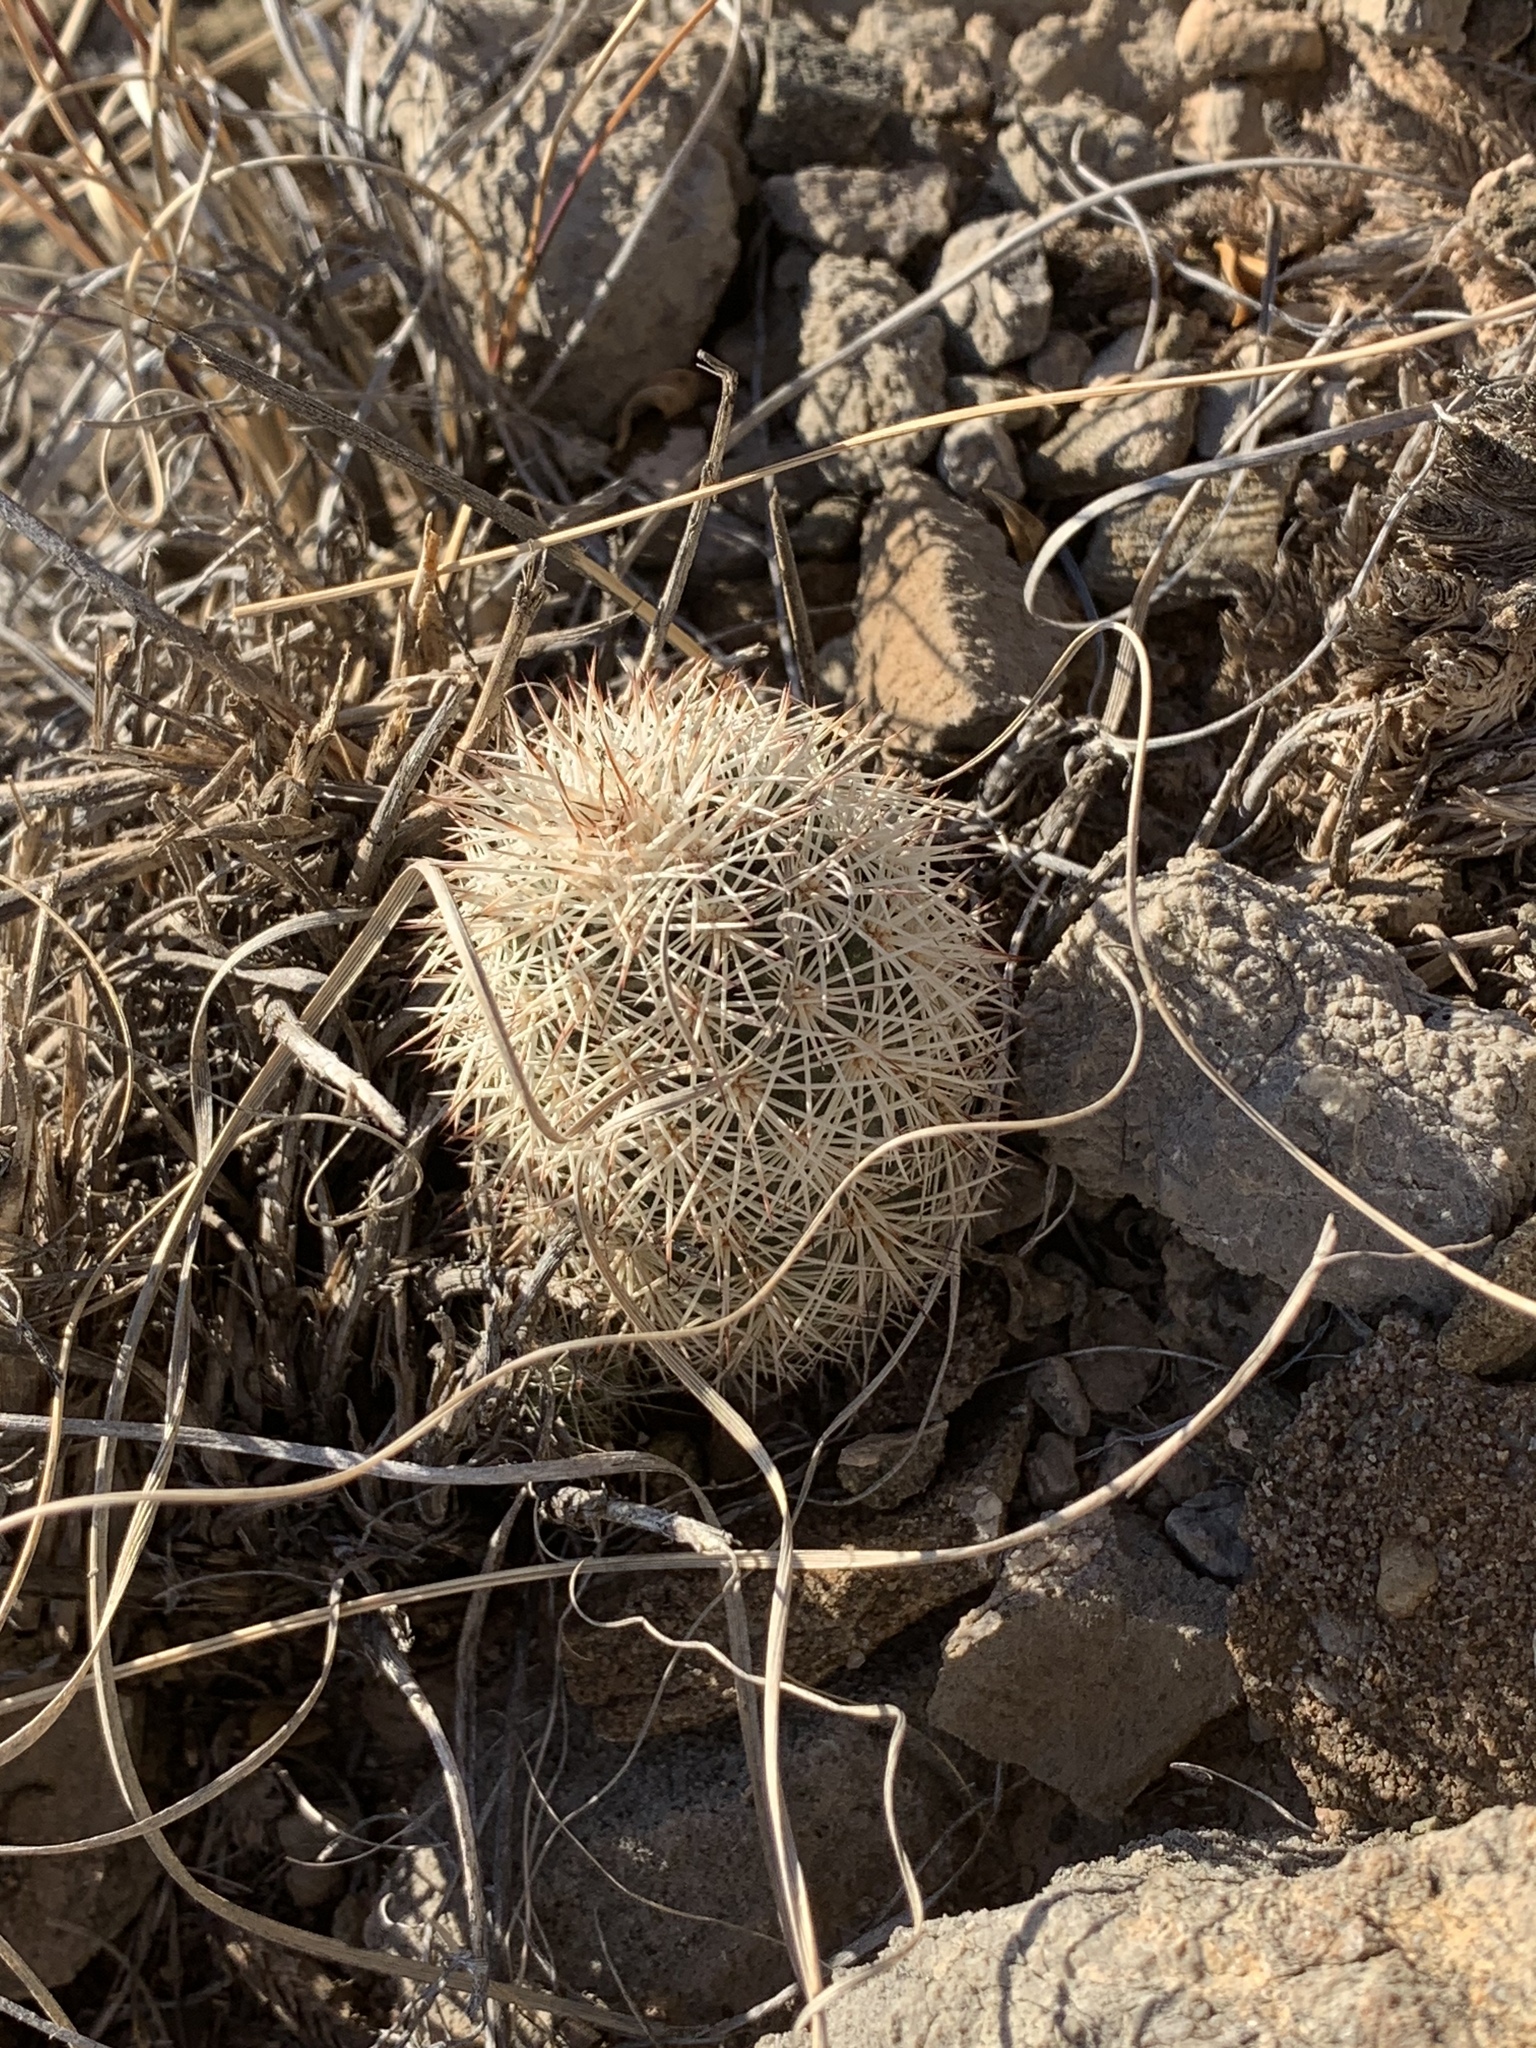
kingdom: Plantae
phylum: Tracheophyta
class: Magnoliopsida
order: Caryophyllales
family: Cactaceae
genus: Echinocereus
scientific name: Echinocereus dasyacanthus
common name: Spiny hedgehog cactus
